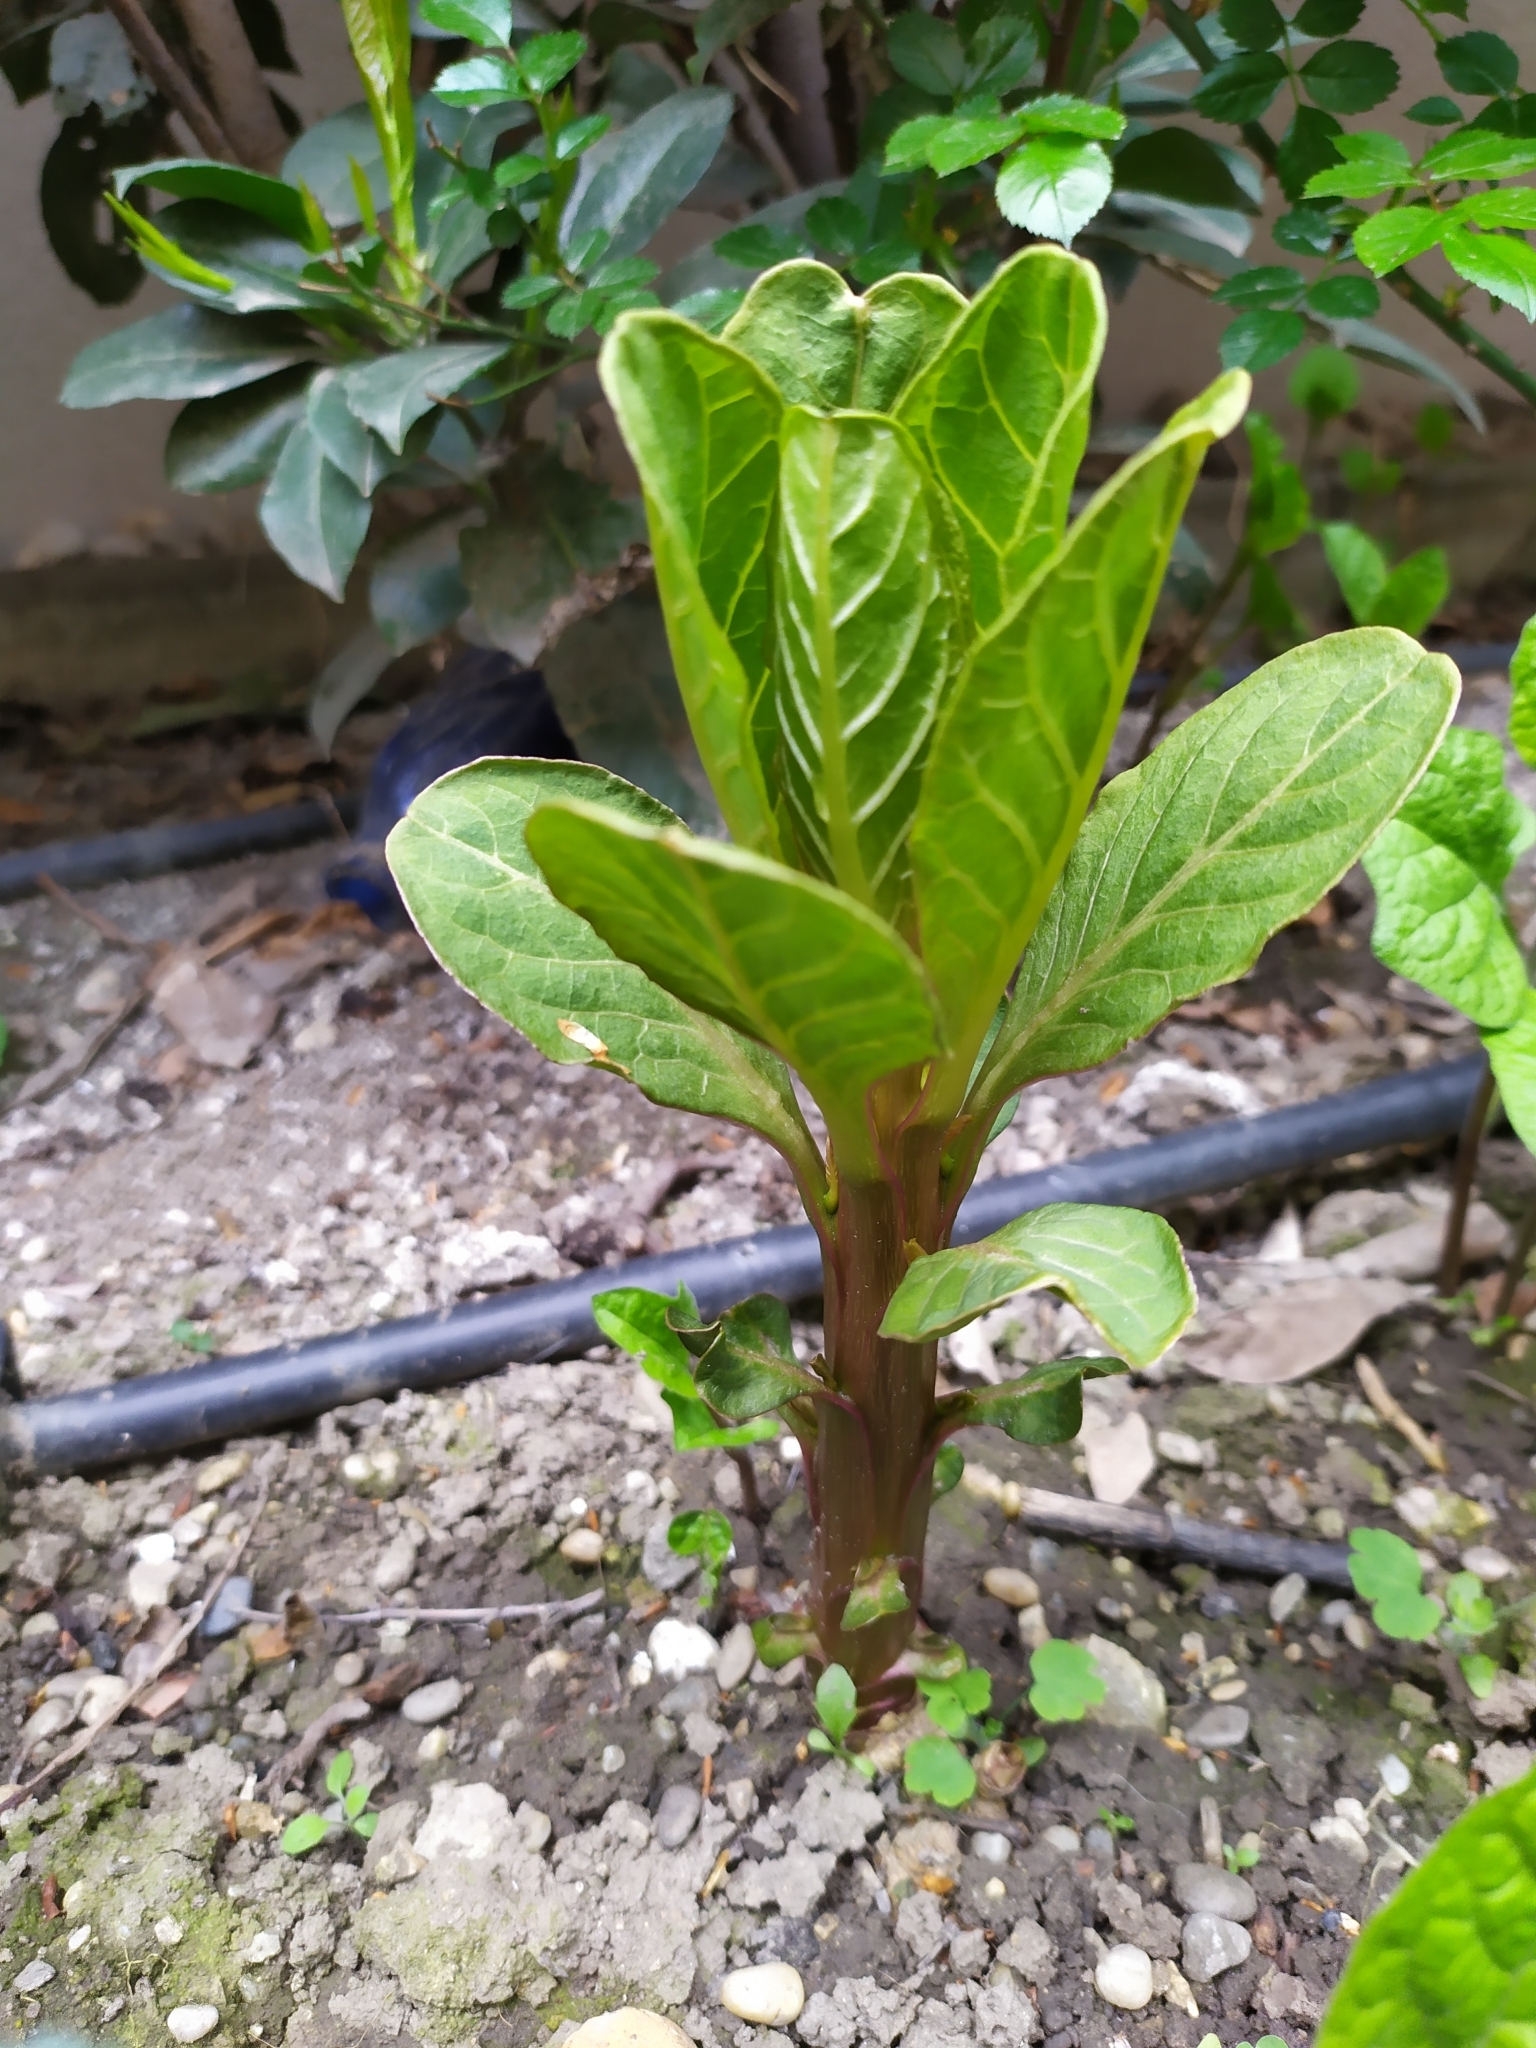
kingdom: Plantae
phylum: Tracheophyta
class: Magnoliopsida
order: Caryophyllales
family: Phytolaccaceae
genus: Phytolacca
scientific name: Phytolacca acinosa
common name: Indian pokeweed
